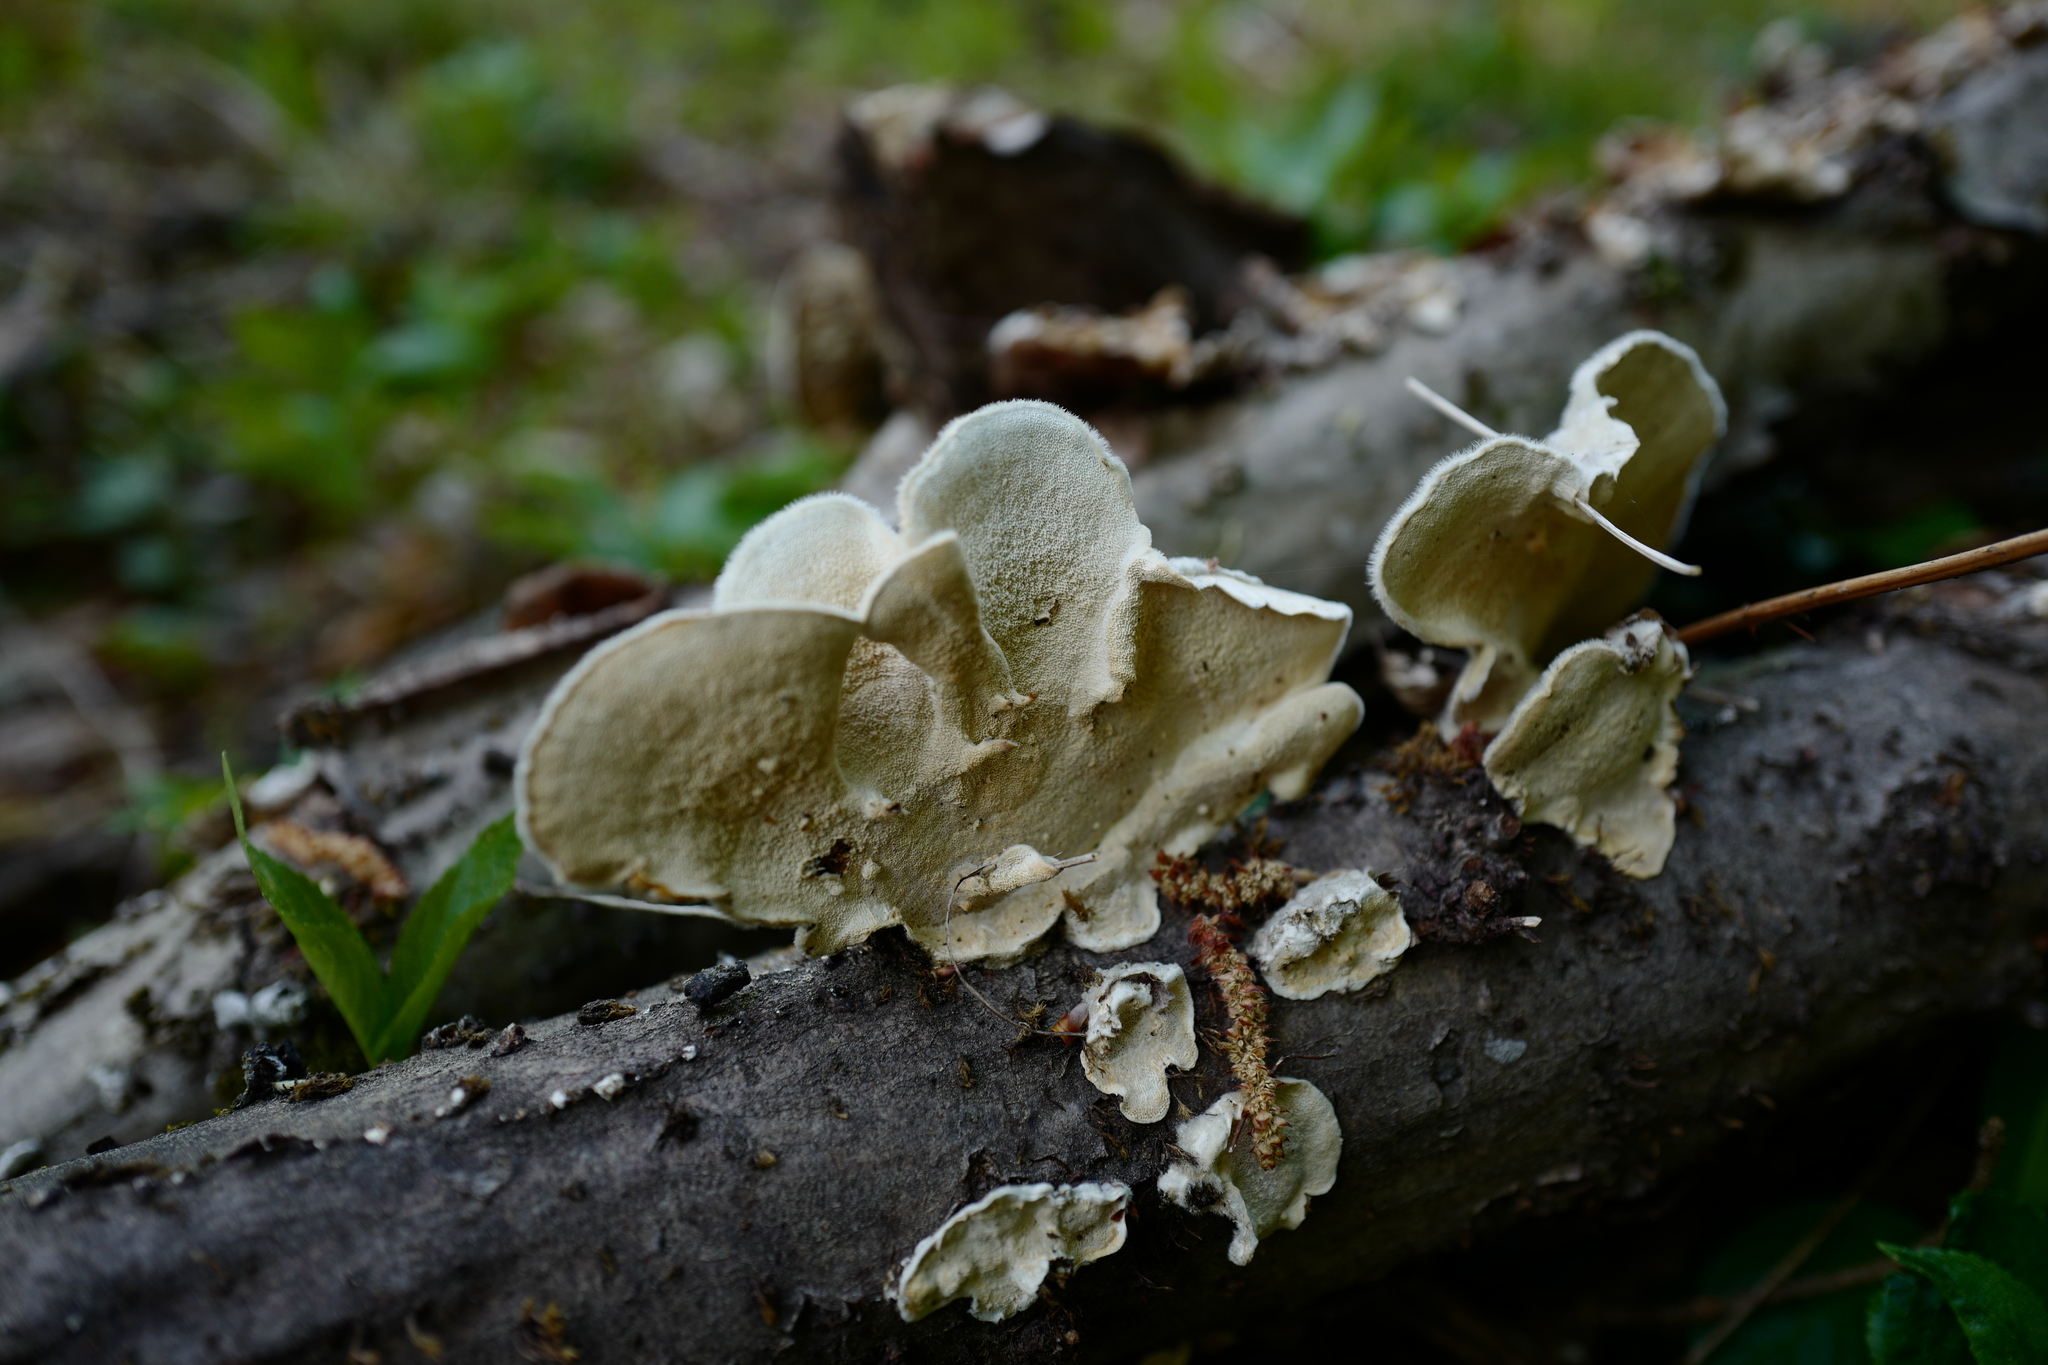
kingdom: Fungi
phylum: Basidiomycota
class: Agaricomycetes
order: Polyporales
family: Polyporaceae
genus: Trametes
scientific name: Trametes hirsuta
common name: Hairy bracket
